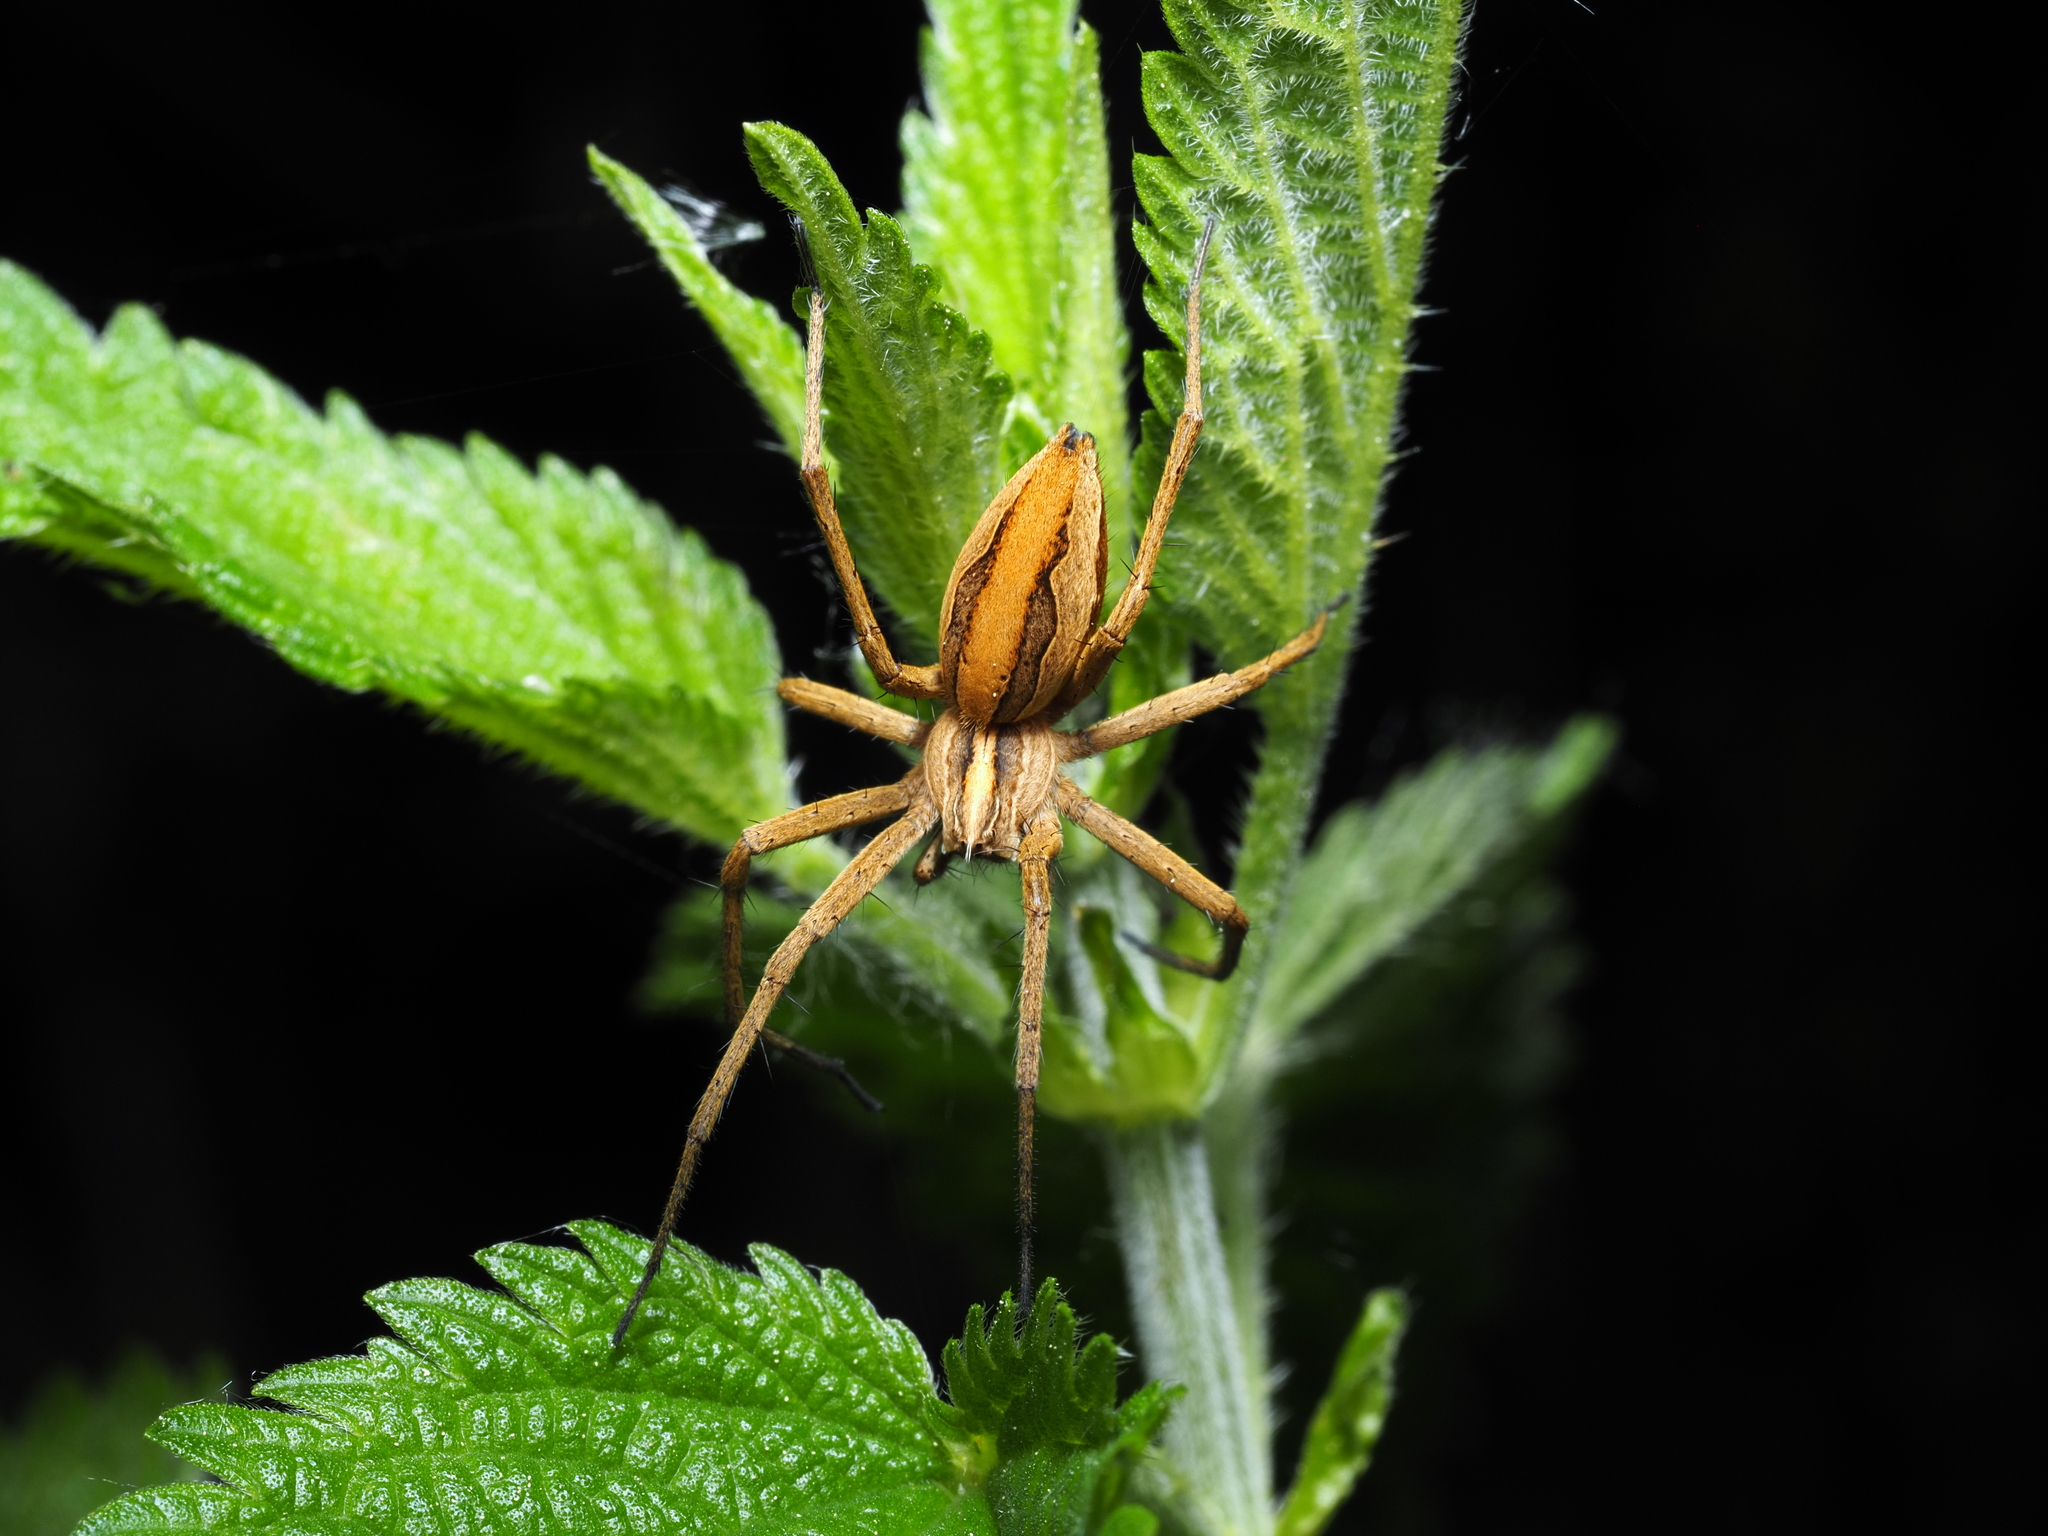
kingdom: Animalia
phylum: Arthropoda
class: Arachnida
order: Araneae
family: Pisauridae
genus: Pisaura
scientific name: Pisaura mirabilis
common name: Tent spider
